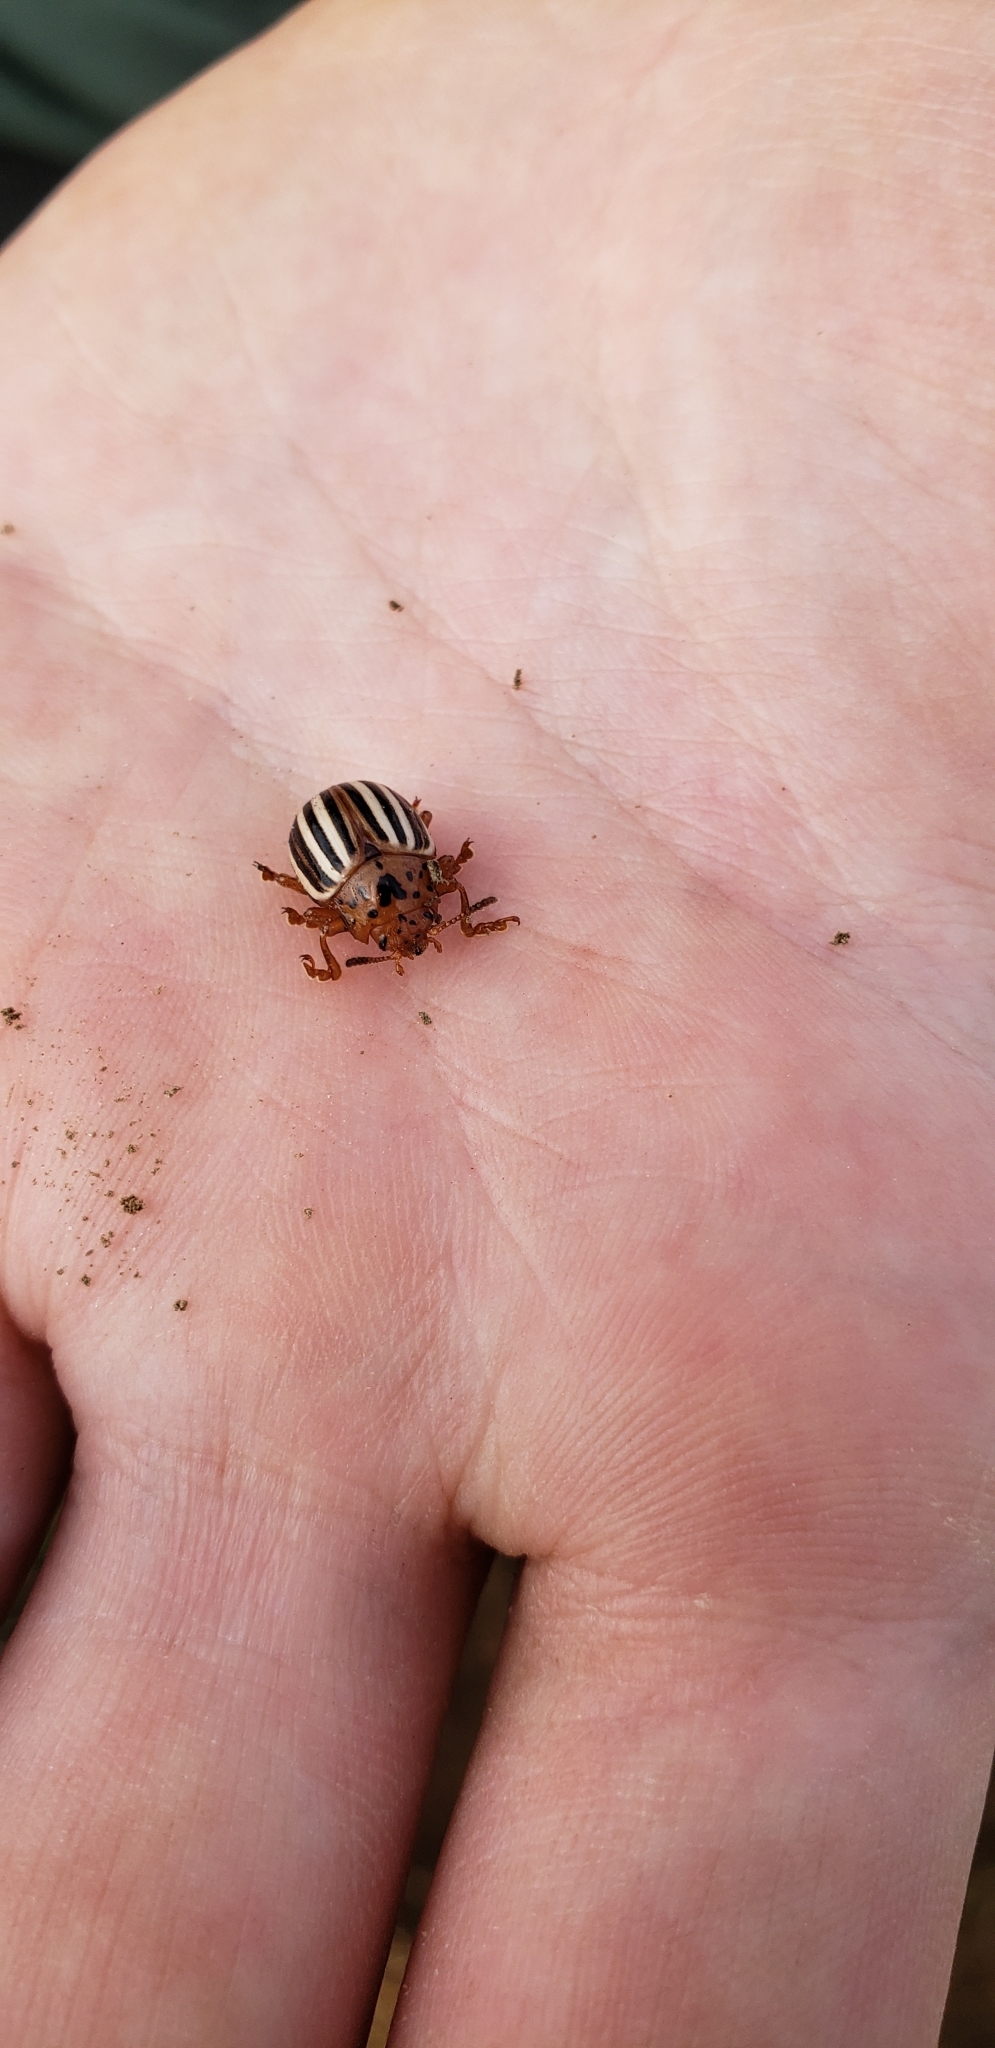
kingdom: Animalia
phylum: Arthropoda
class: Insecta
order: Coleoptera
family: Chrysomelidae
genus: Leptinotarsa
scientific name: Leptinotarsa juncta
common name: False potato beetle
